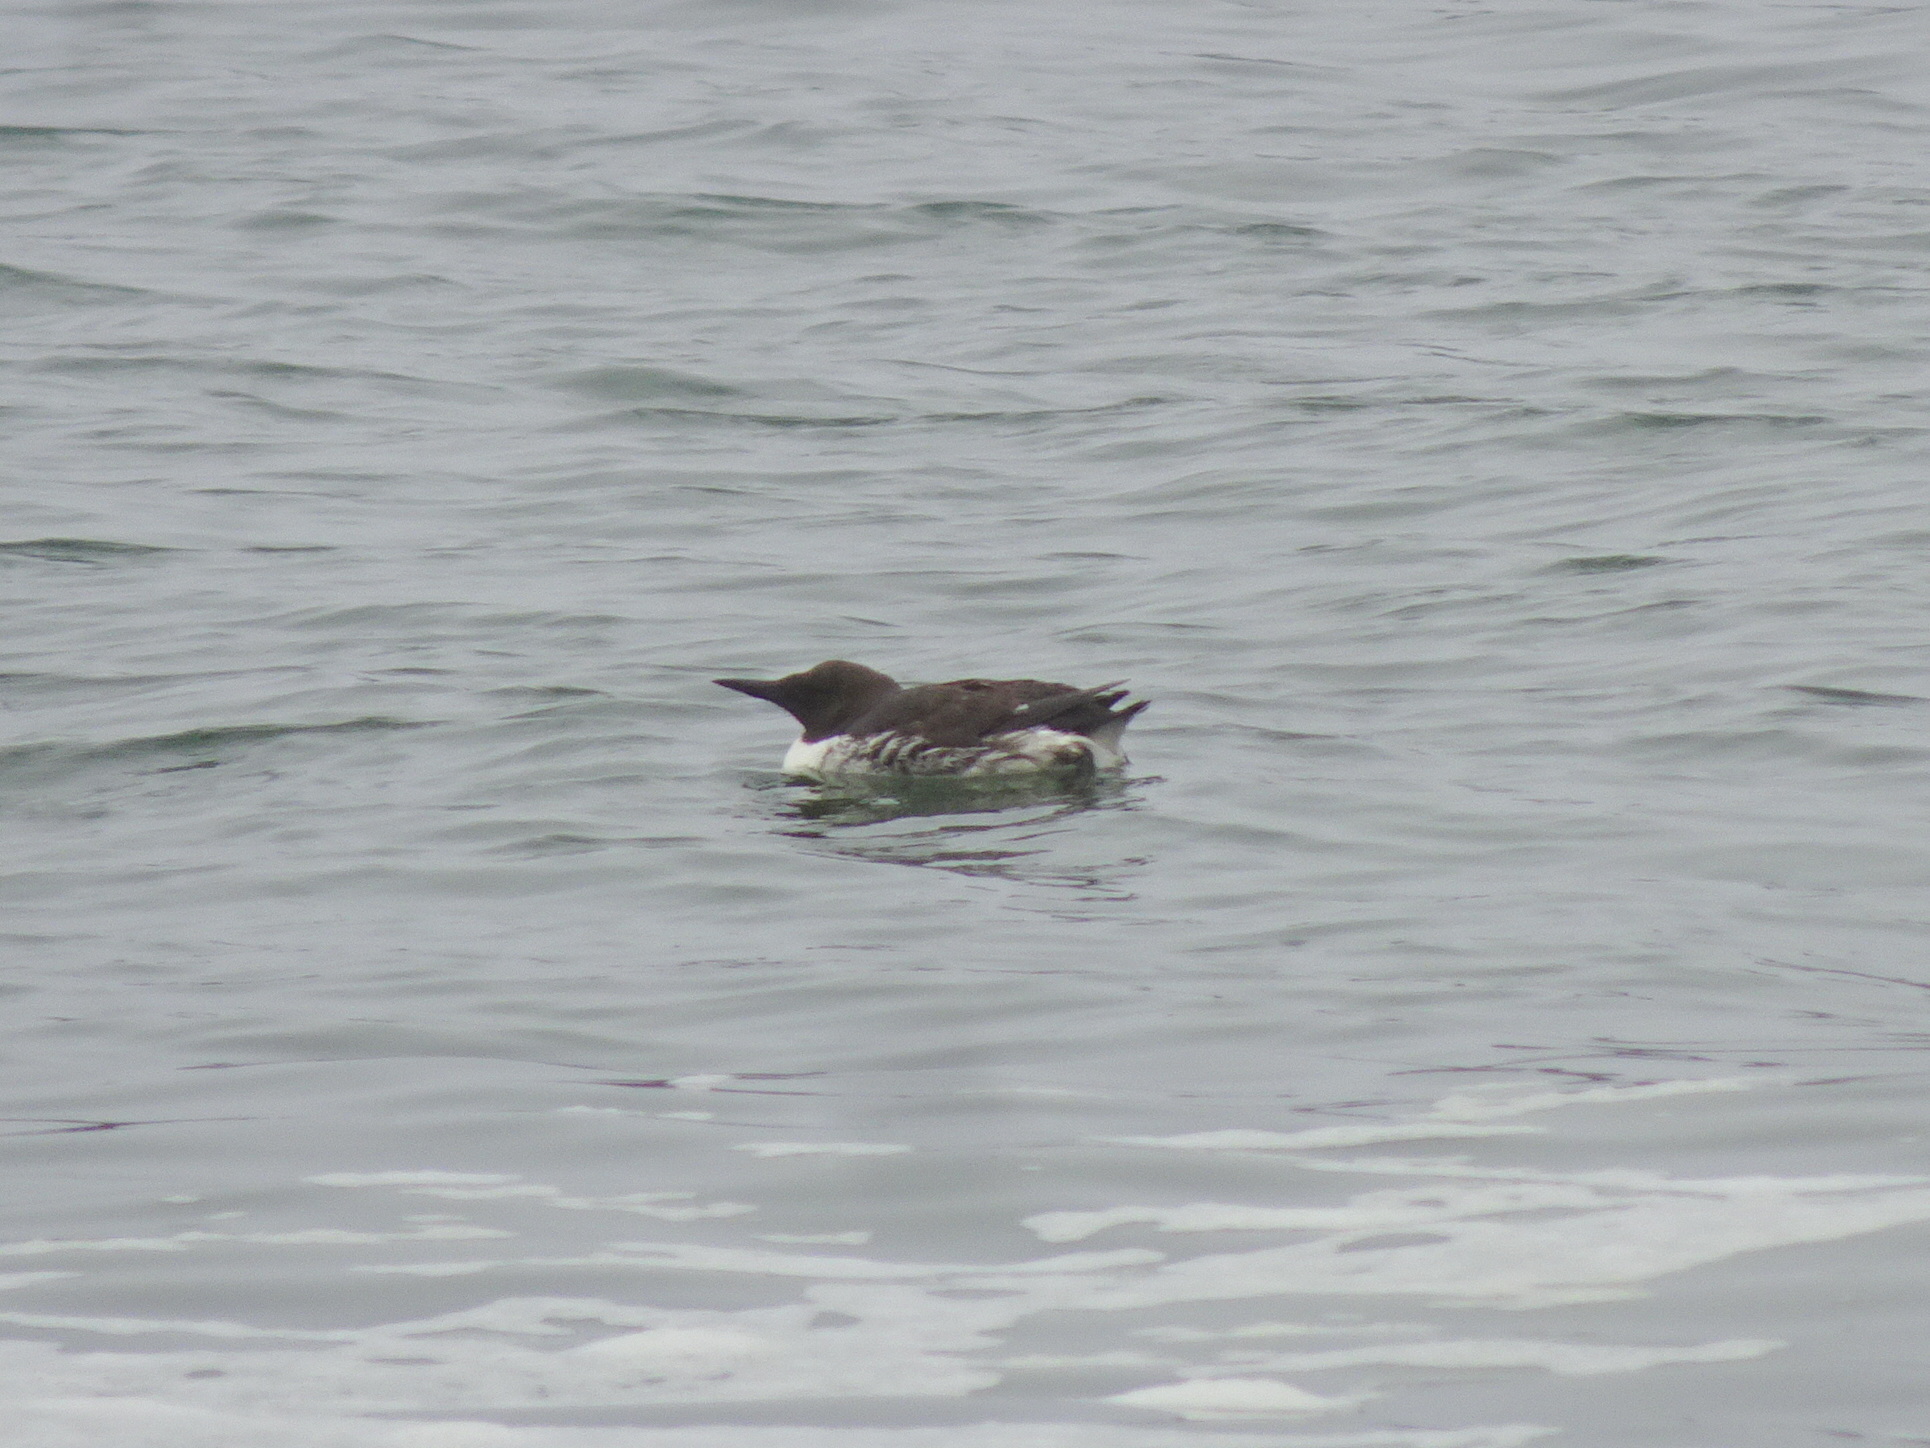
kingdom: Animalia
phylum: Chordata
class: Aves
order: Charadriiformes
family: Alcidae
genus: Uria
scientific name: Uria aalge
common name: Common murre
